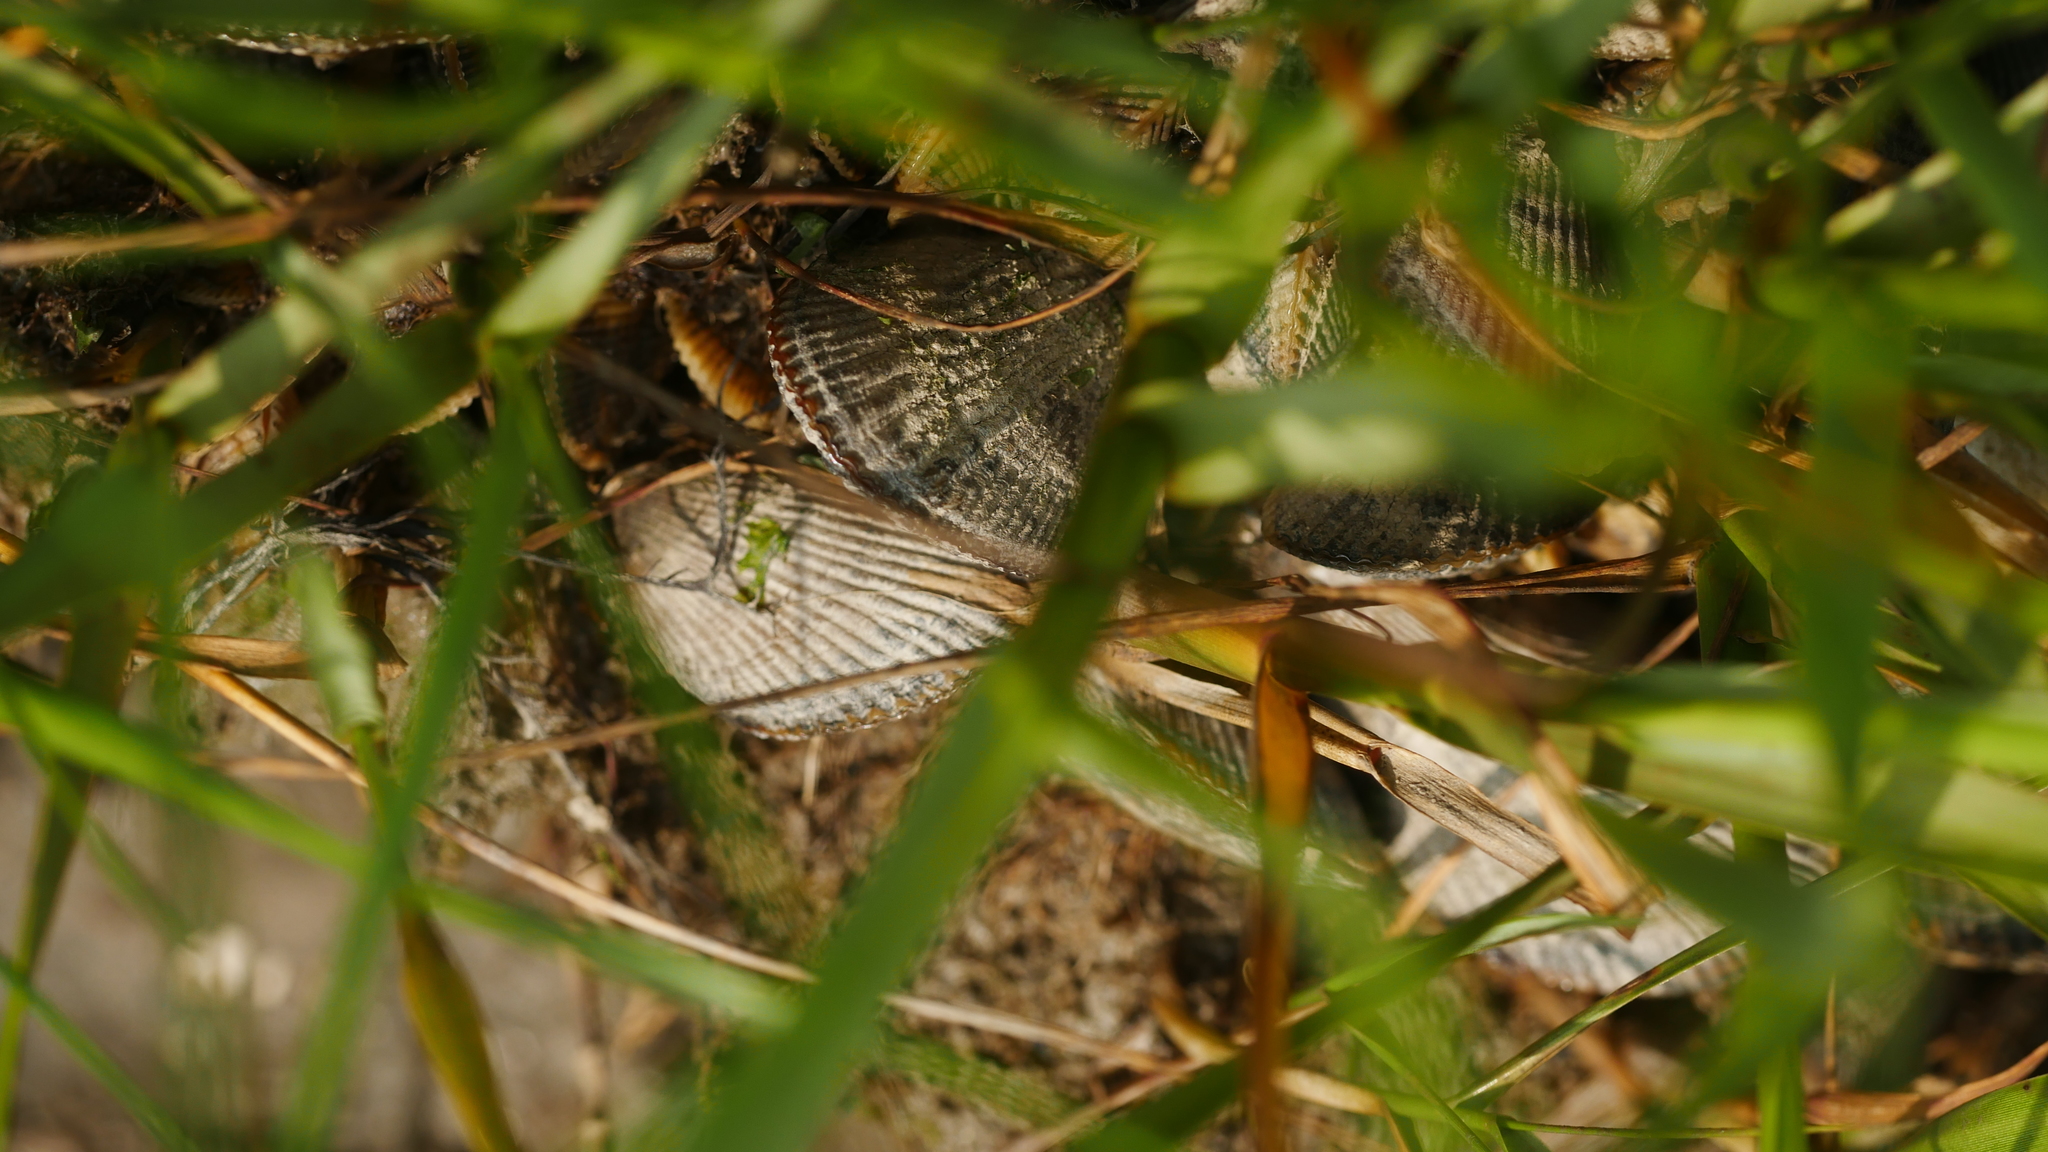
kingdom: Animalia
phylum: Mollusca
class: Bivalvia
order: Mytilida
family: Mytilidae
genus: Geukensia
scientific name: Geukensia demissa
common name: Ribbed mussel
